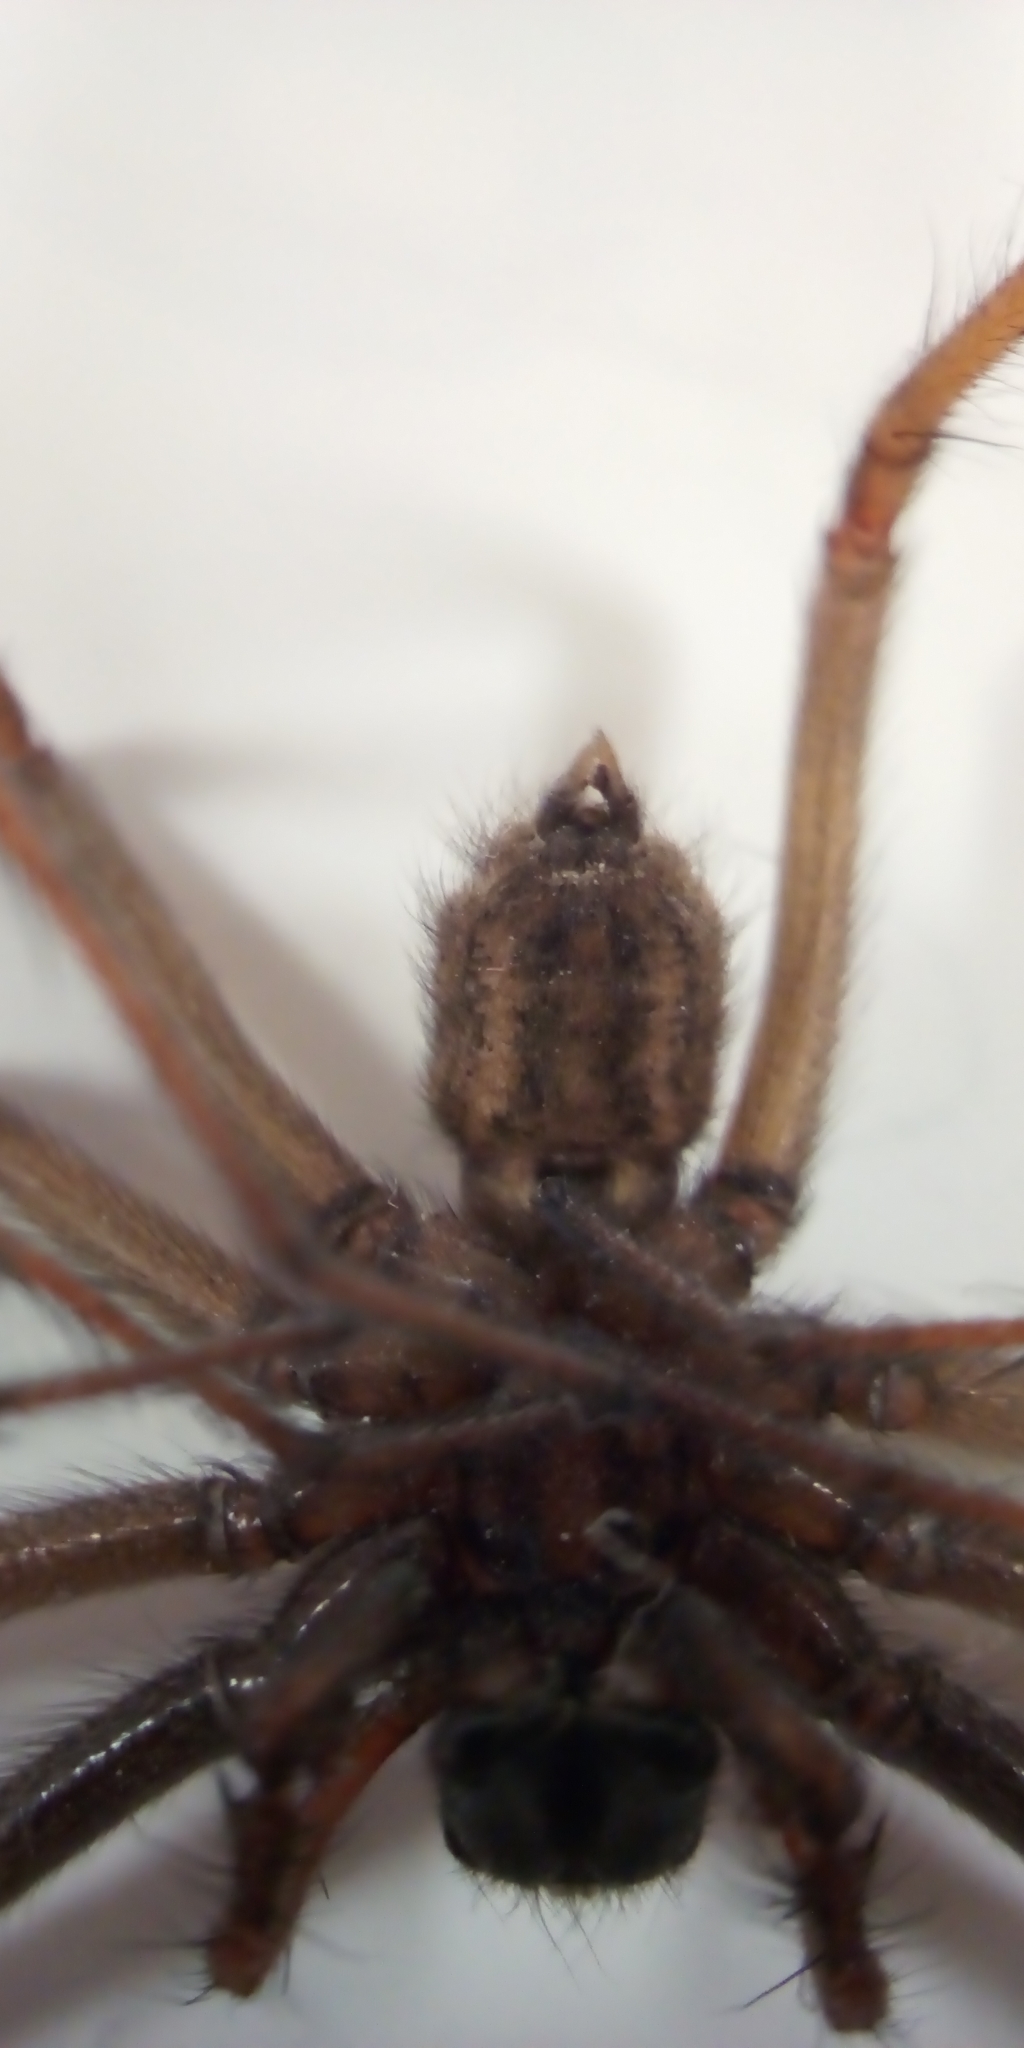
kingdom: Animalia
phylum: Arthropoda
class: Arachnida
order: Araneae
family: Agelenidae
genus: Eratigena
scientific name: Eratigena
